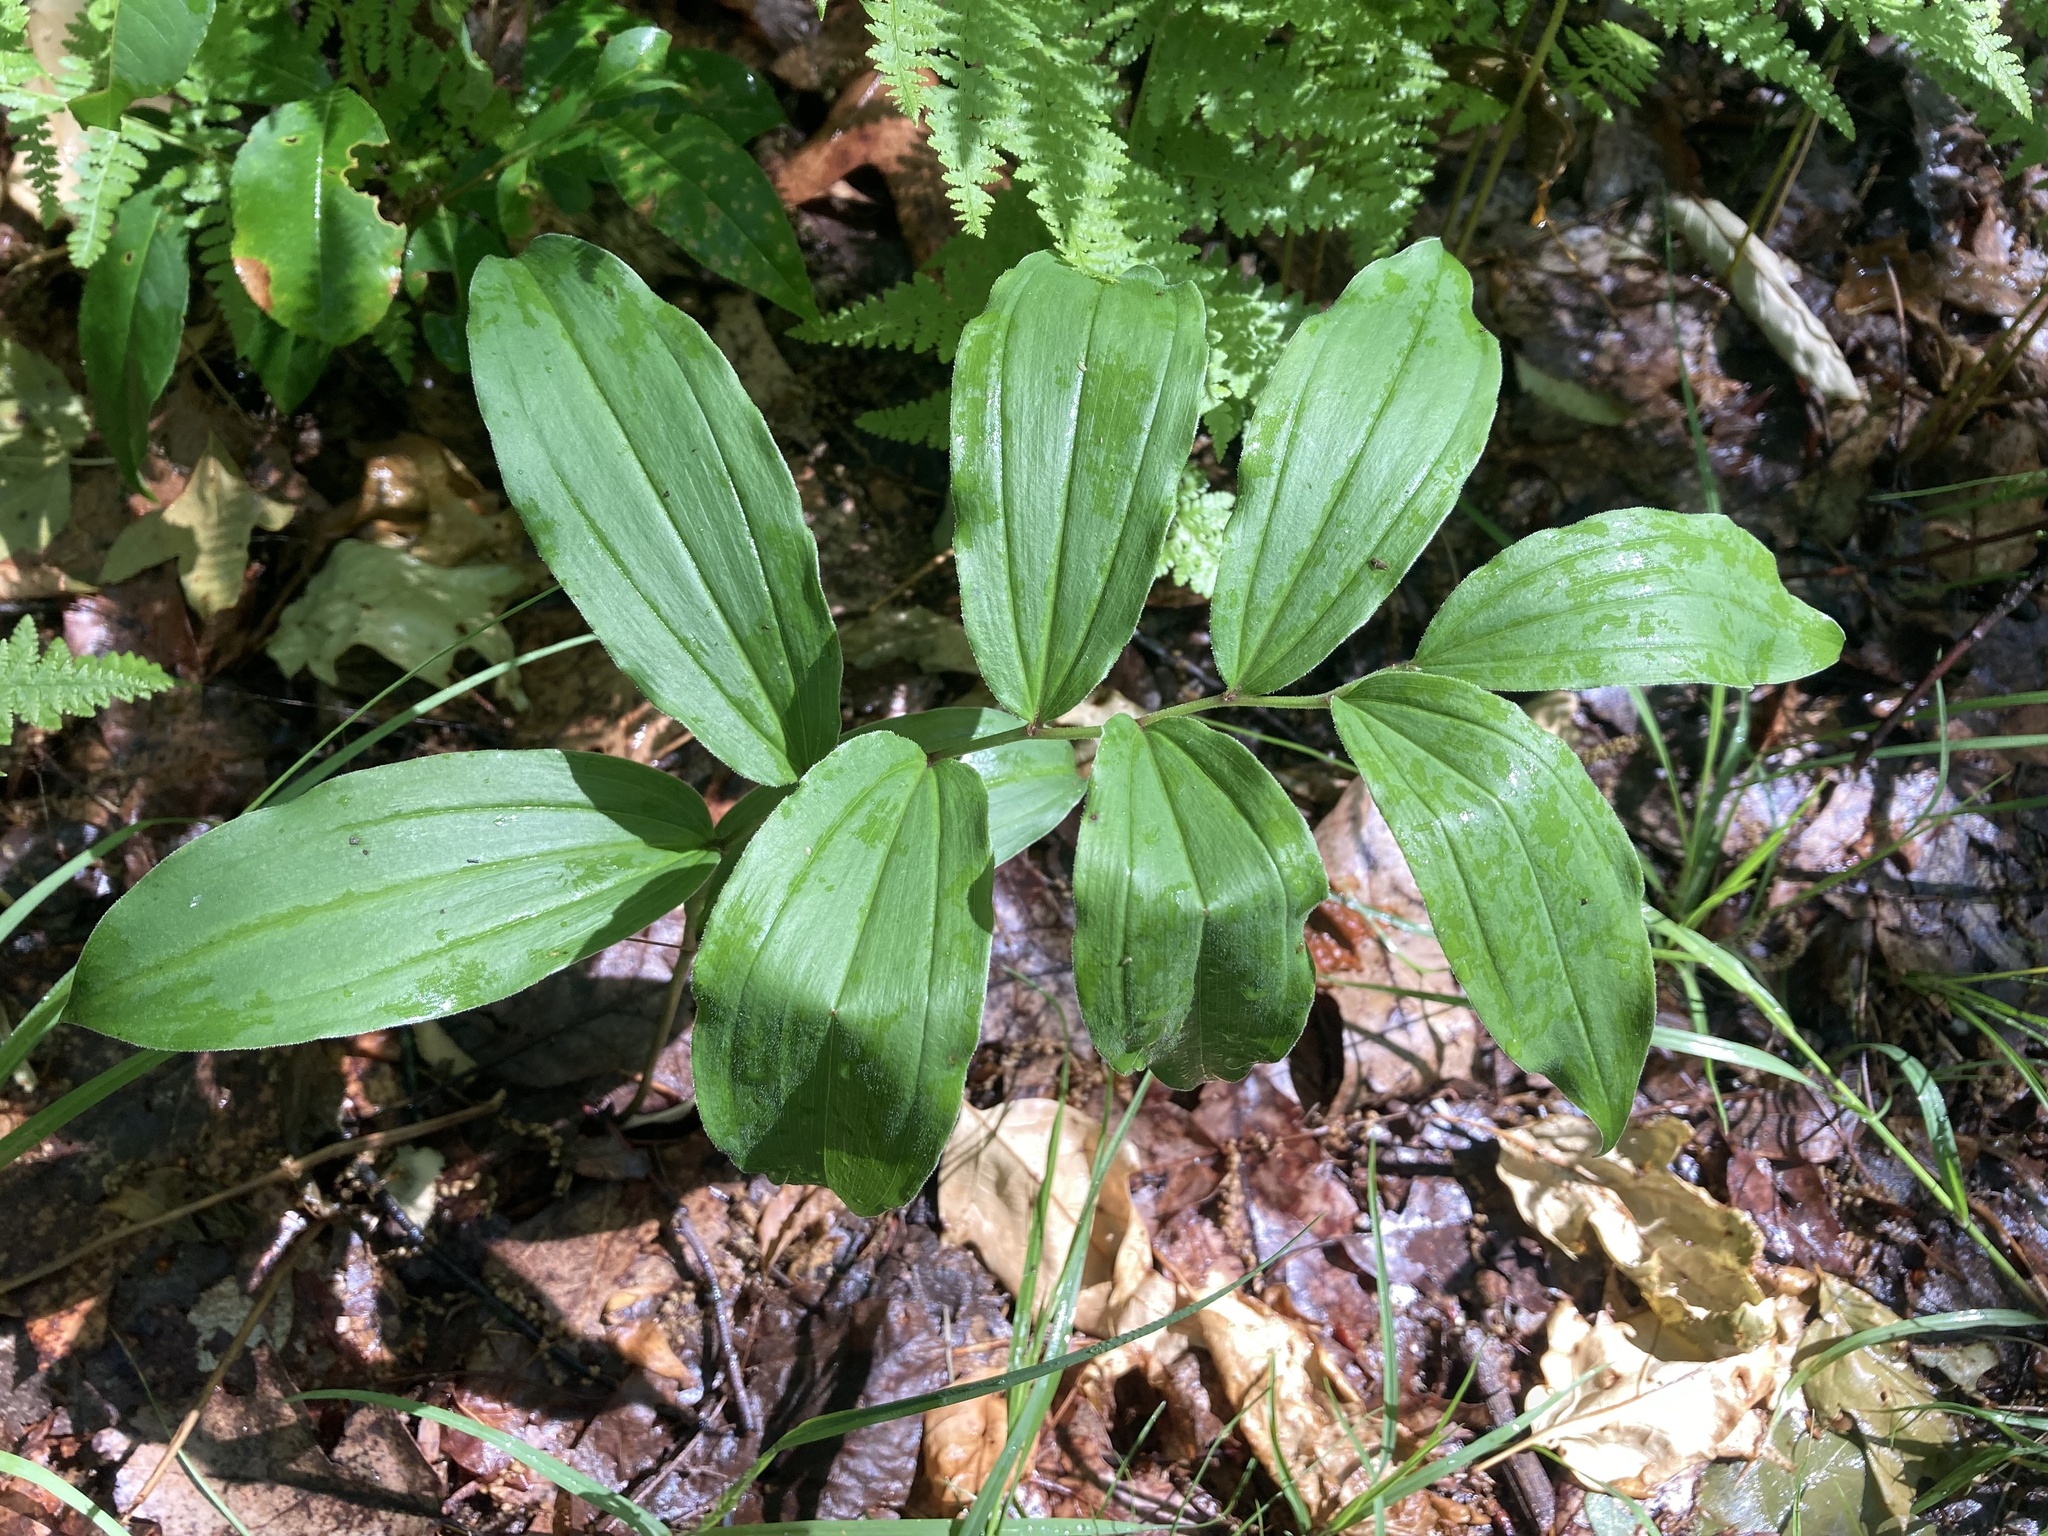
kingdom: Plantae
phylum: Tracheophyta
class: Liliopsida
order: Asparagales
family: Asparagaceae
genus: Maianthemum
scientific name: Maianthemum racemosum
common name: False spikenard
